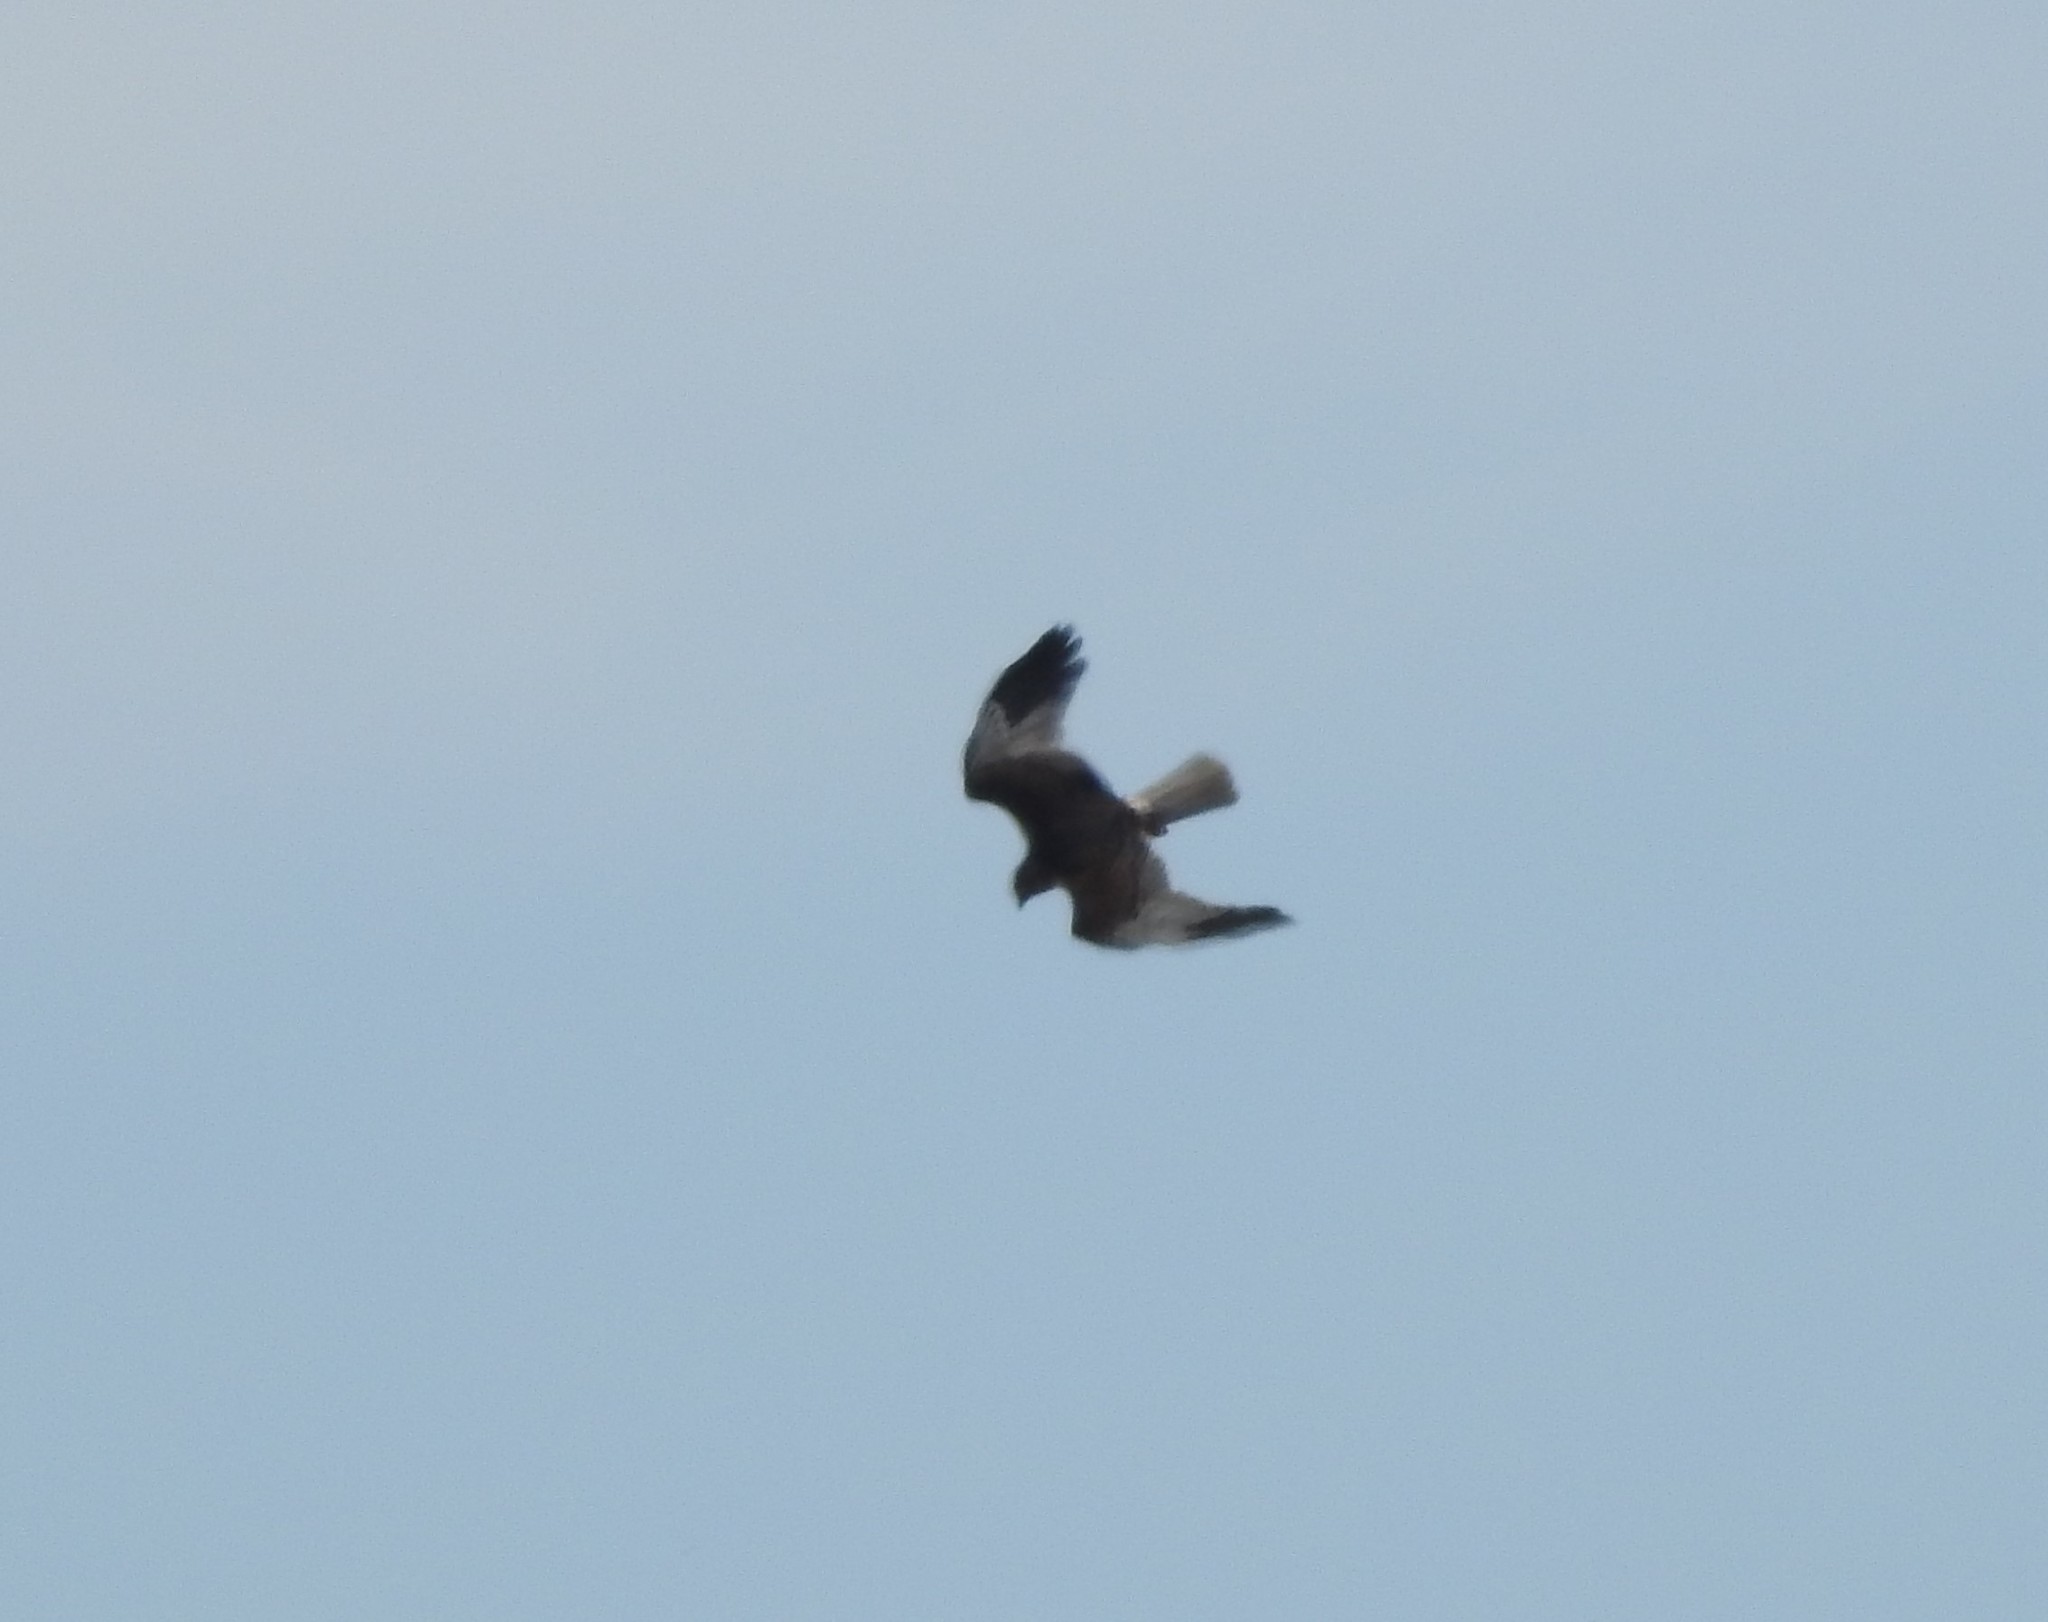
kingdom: Animalia
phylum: Chordata
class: Aves
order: Accipitriformes
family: Accipitridae
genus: Circus
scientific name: Circus aeruginosus
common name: Western marsh harrier
